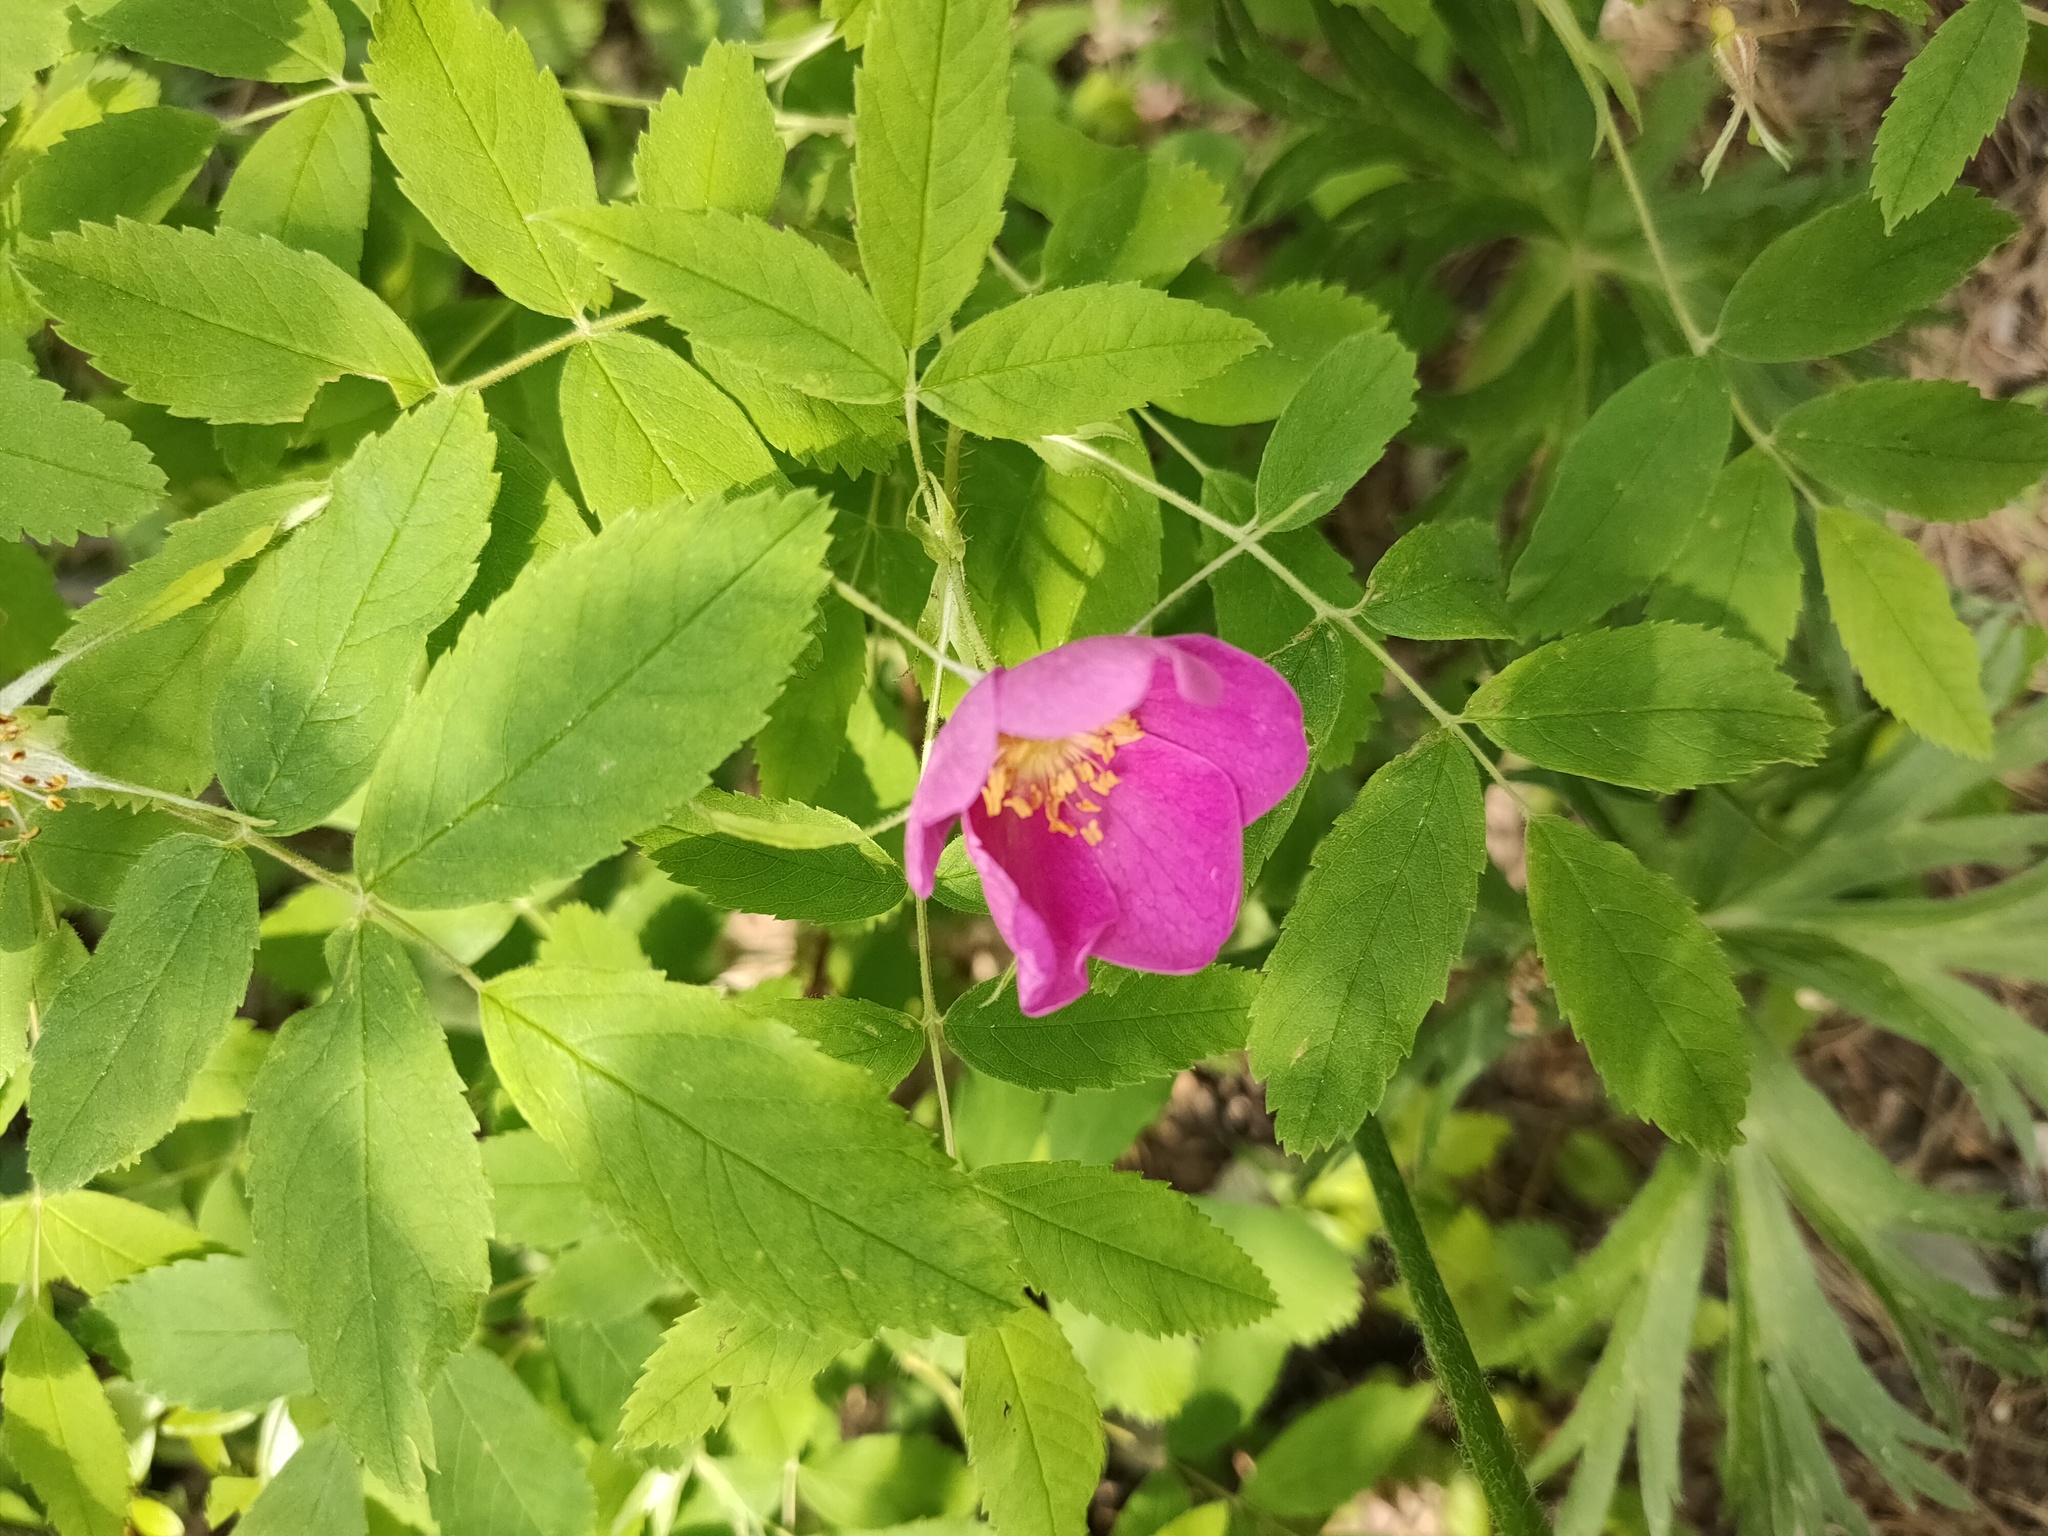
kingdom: Plantae
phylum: Tracheophyta
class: Magnoliopsida
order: Rosales
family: Rosaceae
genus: Rosa
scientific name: Rosa acicularis
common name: Prickly rose
